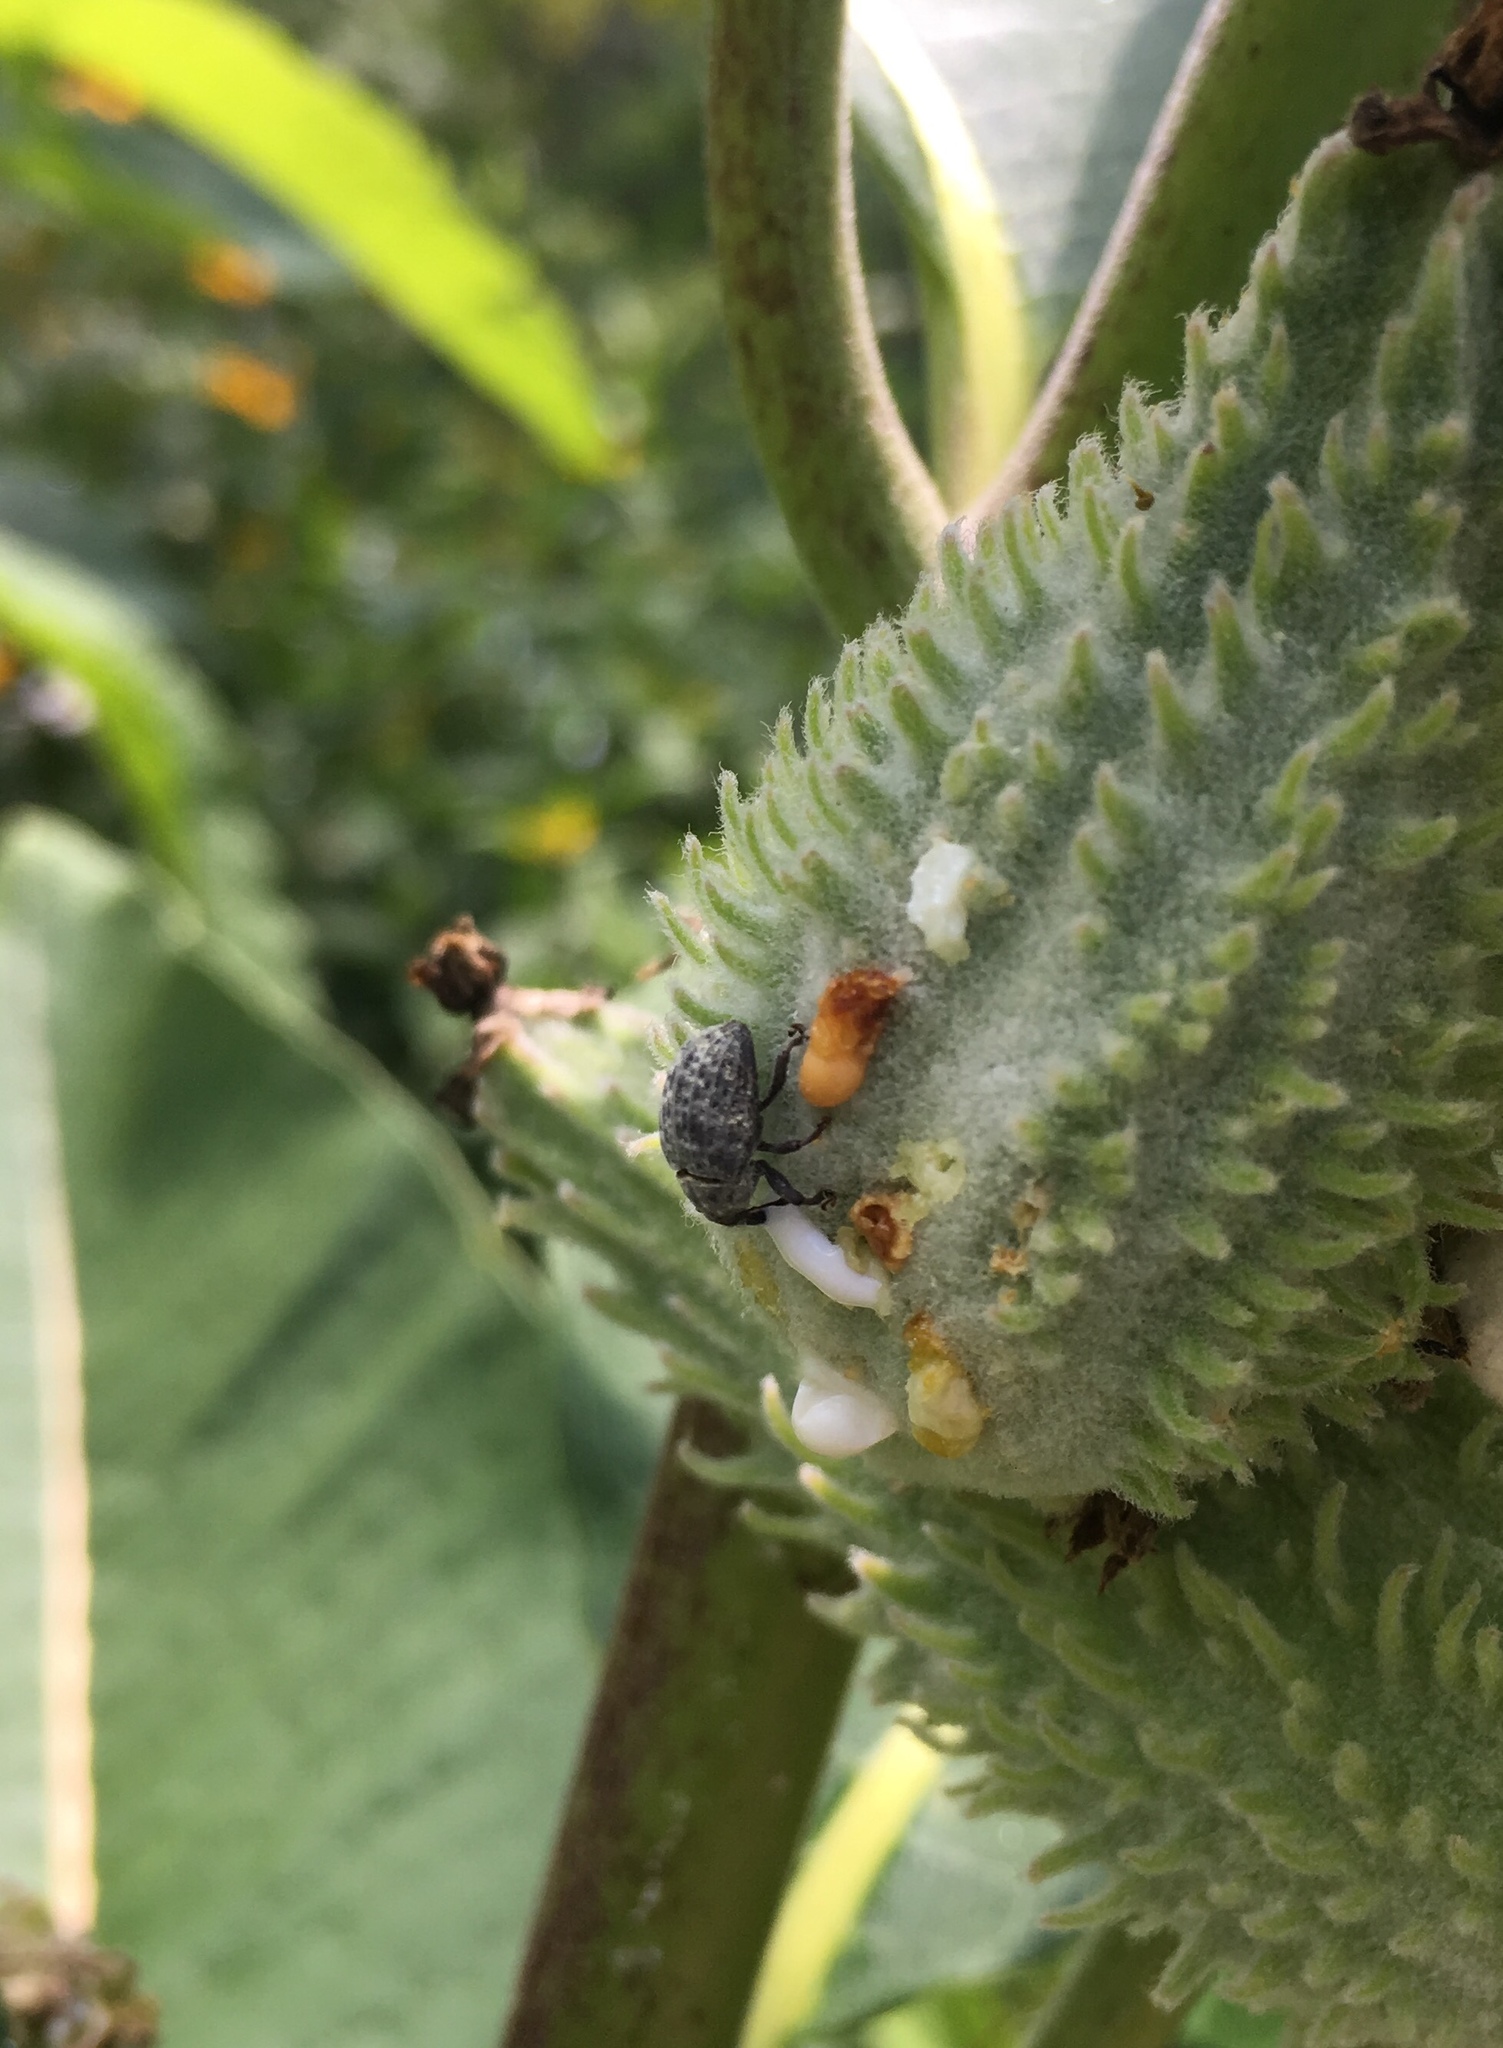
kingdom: Animalia
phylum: Arthropoda
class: Insecta
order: Coleoptera
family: Curculionidae
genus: Rhyssomatus
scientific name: Rhyssomatus lineaticollis
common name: Milkweed stem weevil
